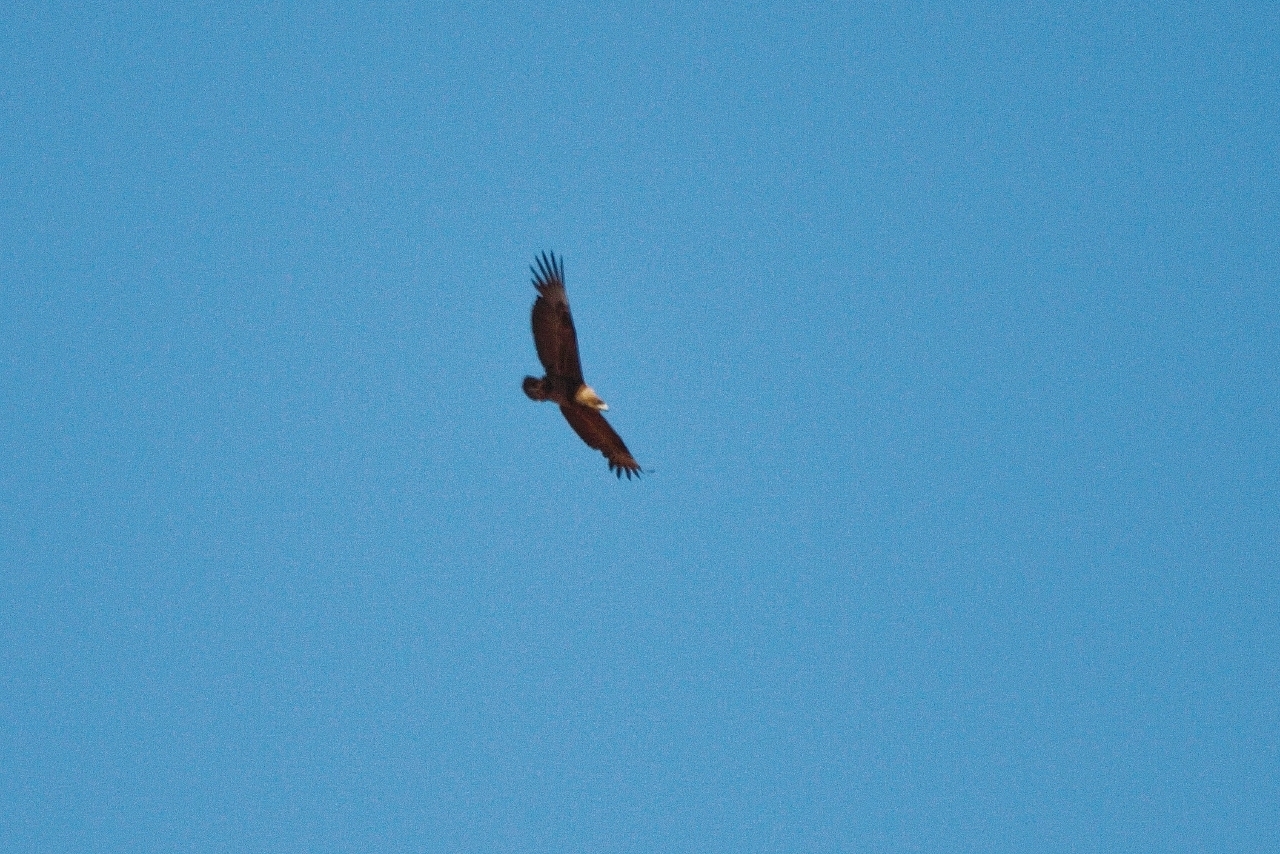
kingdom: Animalia
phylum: Chordata
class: Aves
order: Accipitriformes
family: Accipitridae
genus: Terathopius
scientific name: Terathopius ecaudatus
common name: Bateleur
